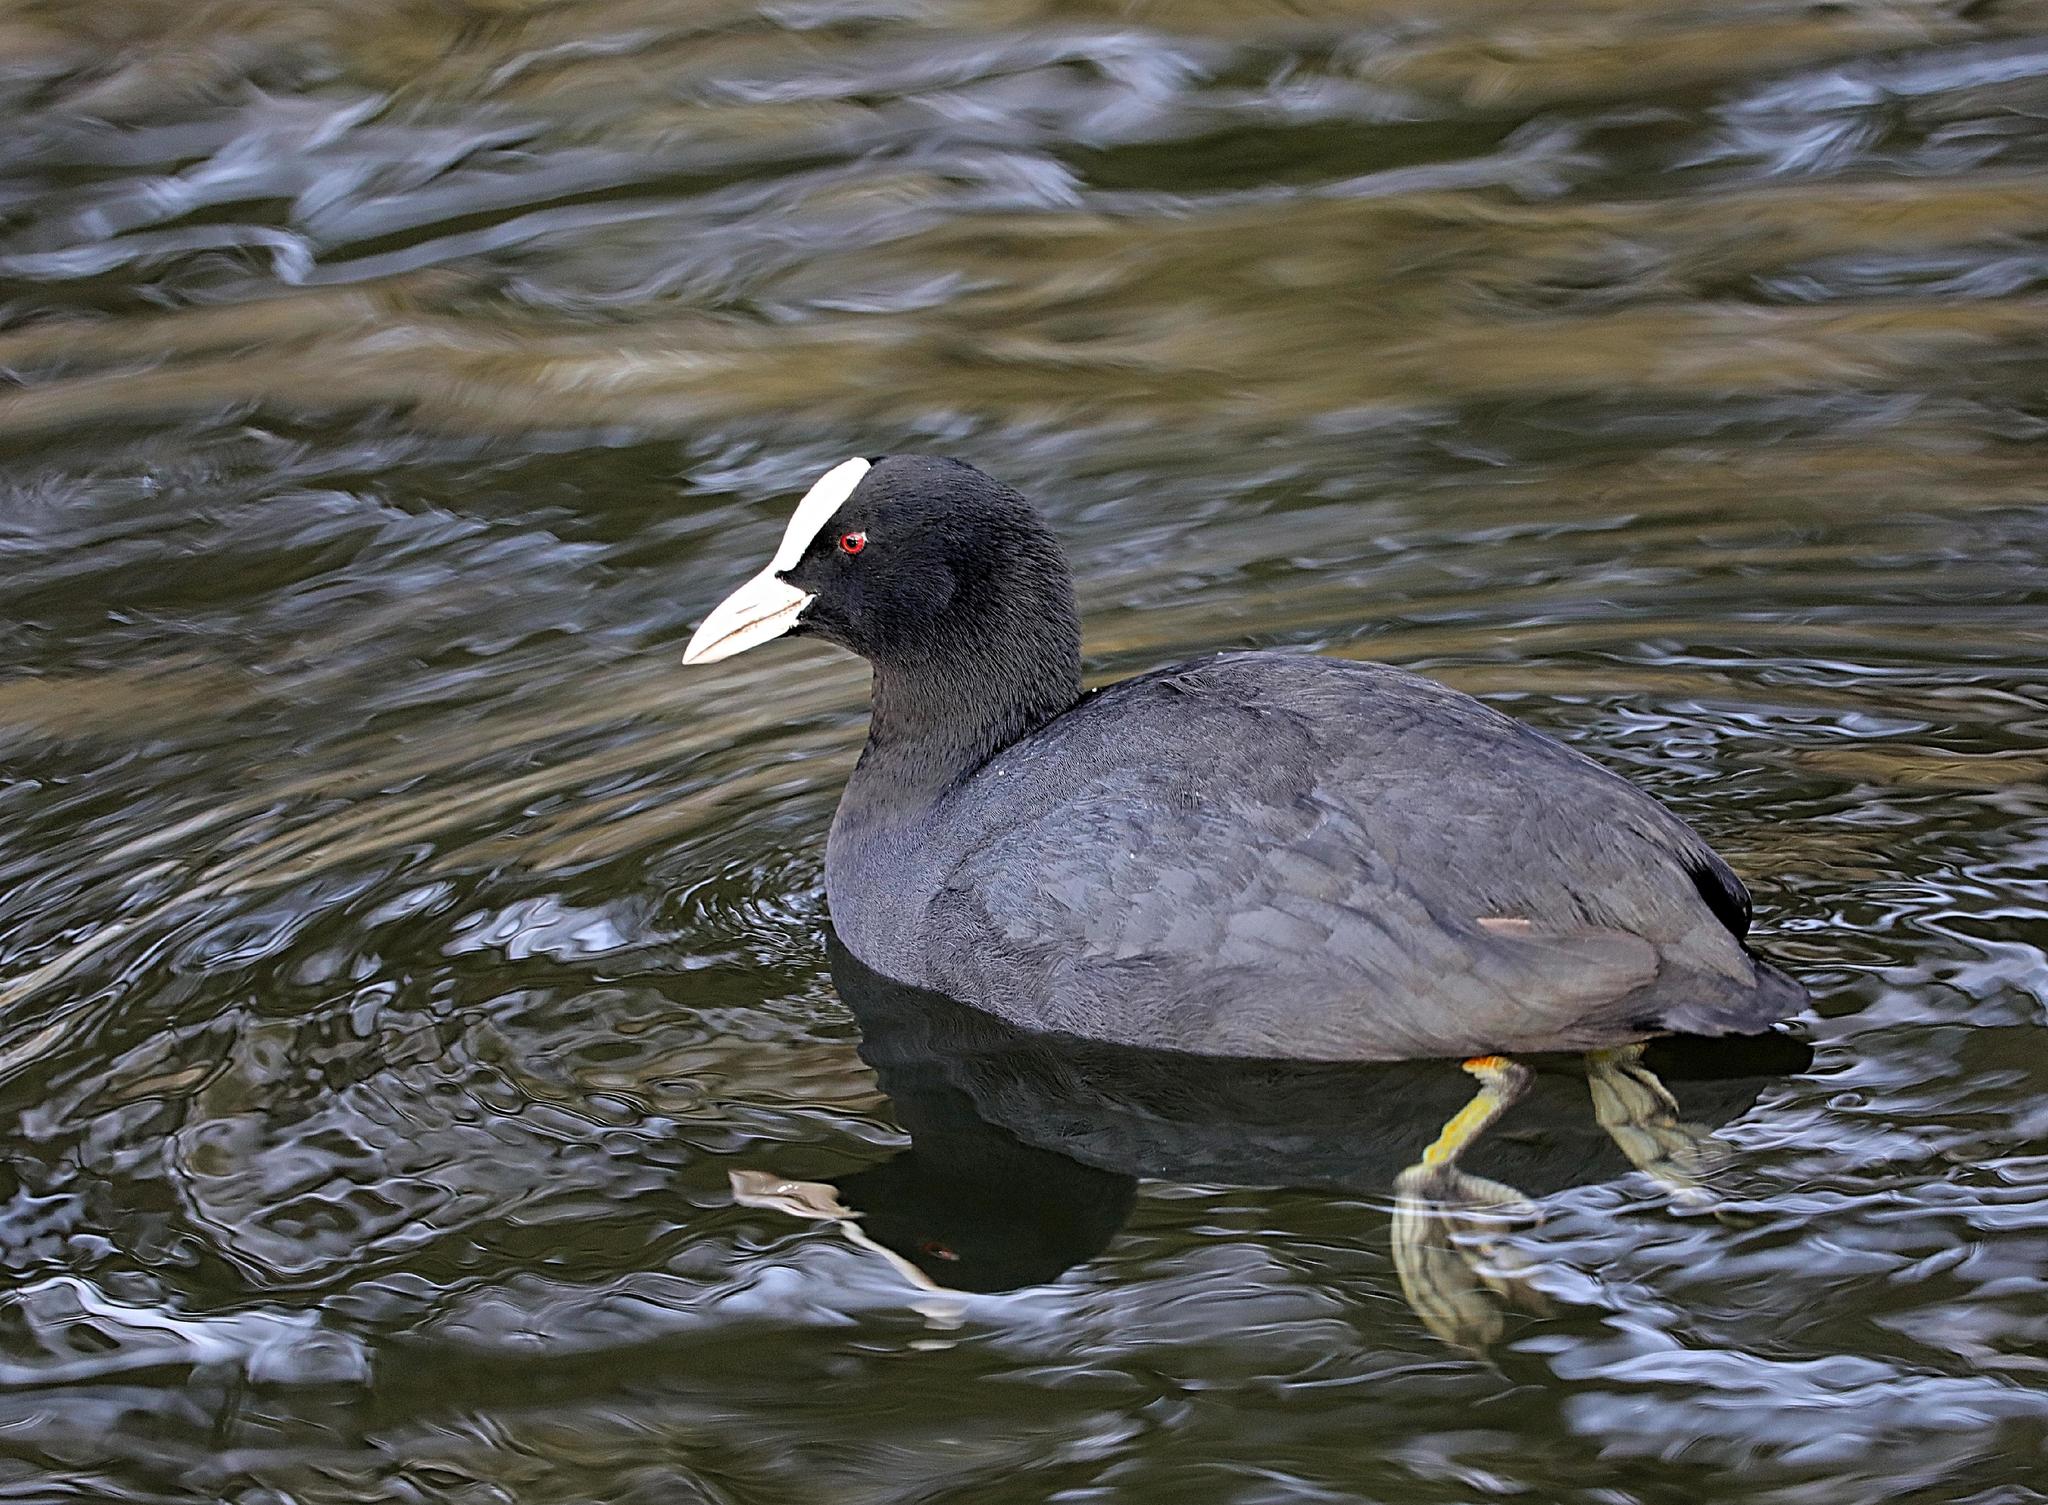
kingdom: Animalia
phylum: Chordata
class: Aves
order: Gruiformes
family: Rallidae
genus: Fulica
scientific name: Fulica atra
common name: Eurasian coot
